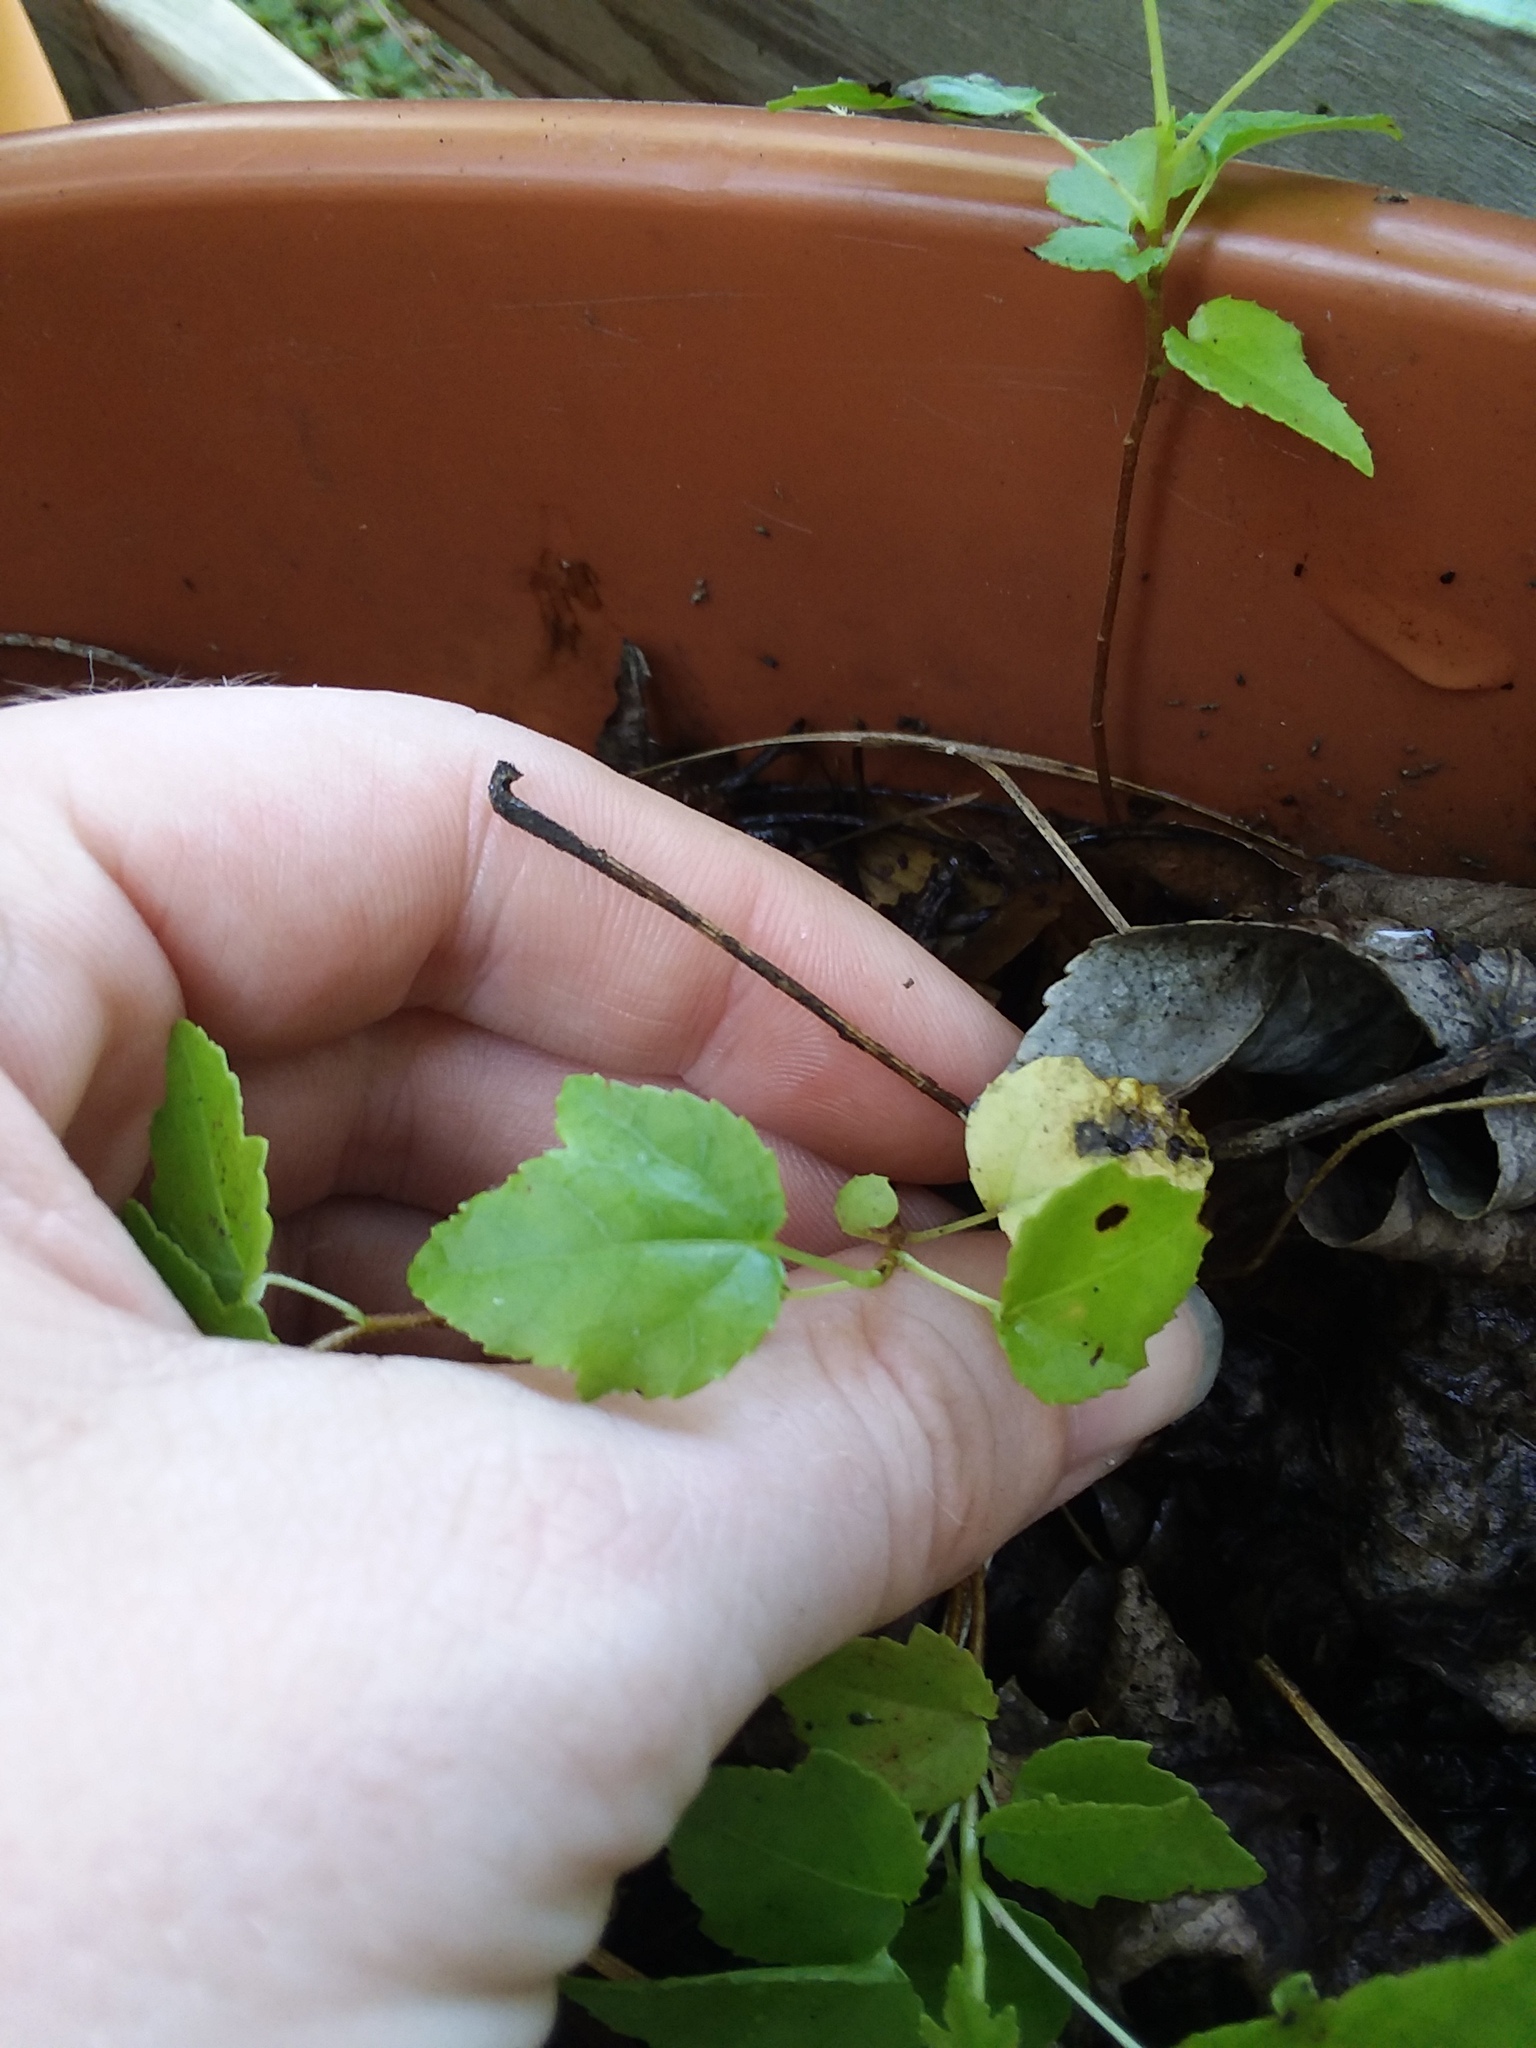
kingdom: Plantae
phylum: Tracheophyta
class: Magnoliopsida
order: Saxifragales
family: Altingiaceae
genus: Liquidambar
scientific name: Liquidambar styraciflua
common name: Sweet gum
